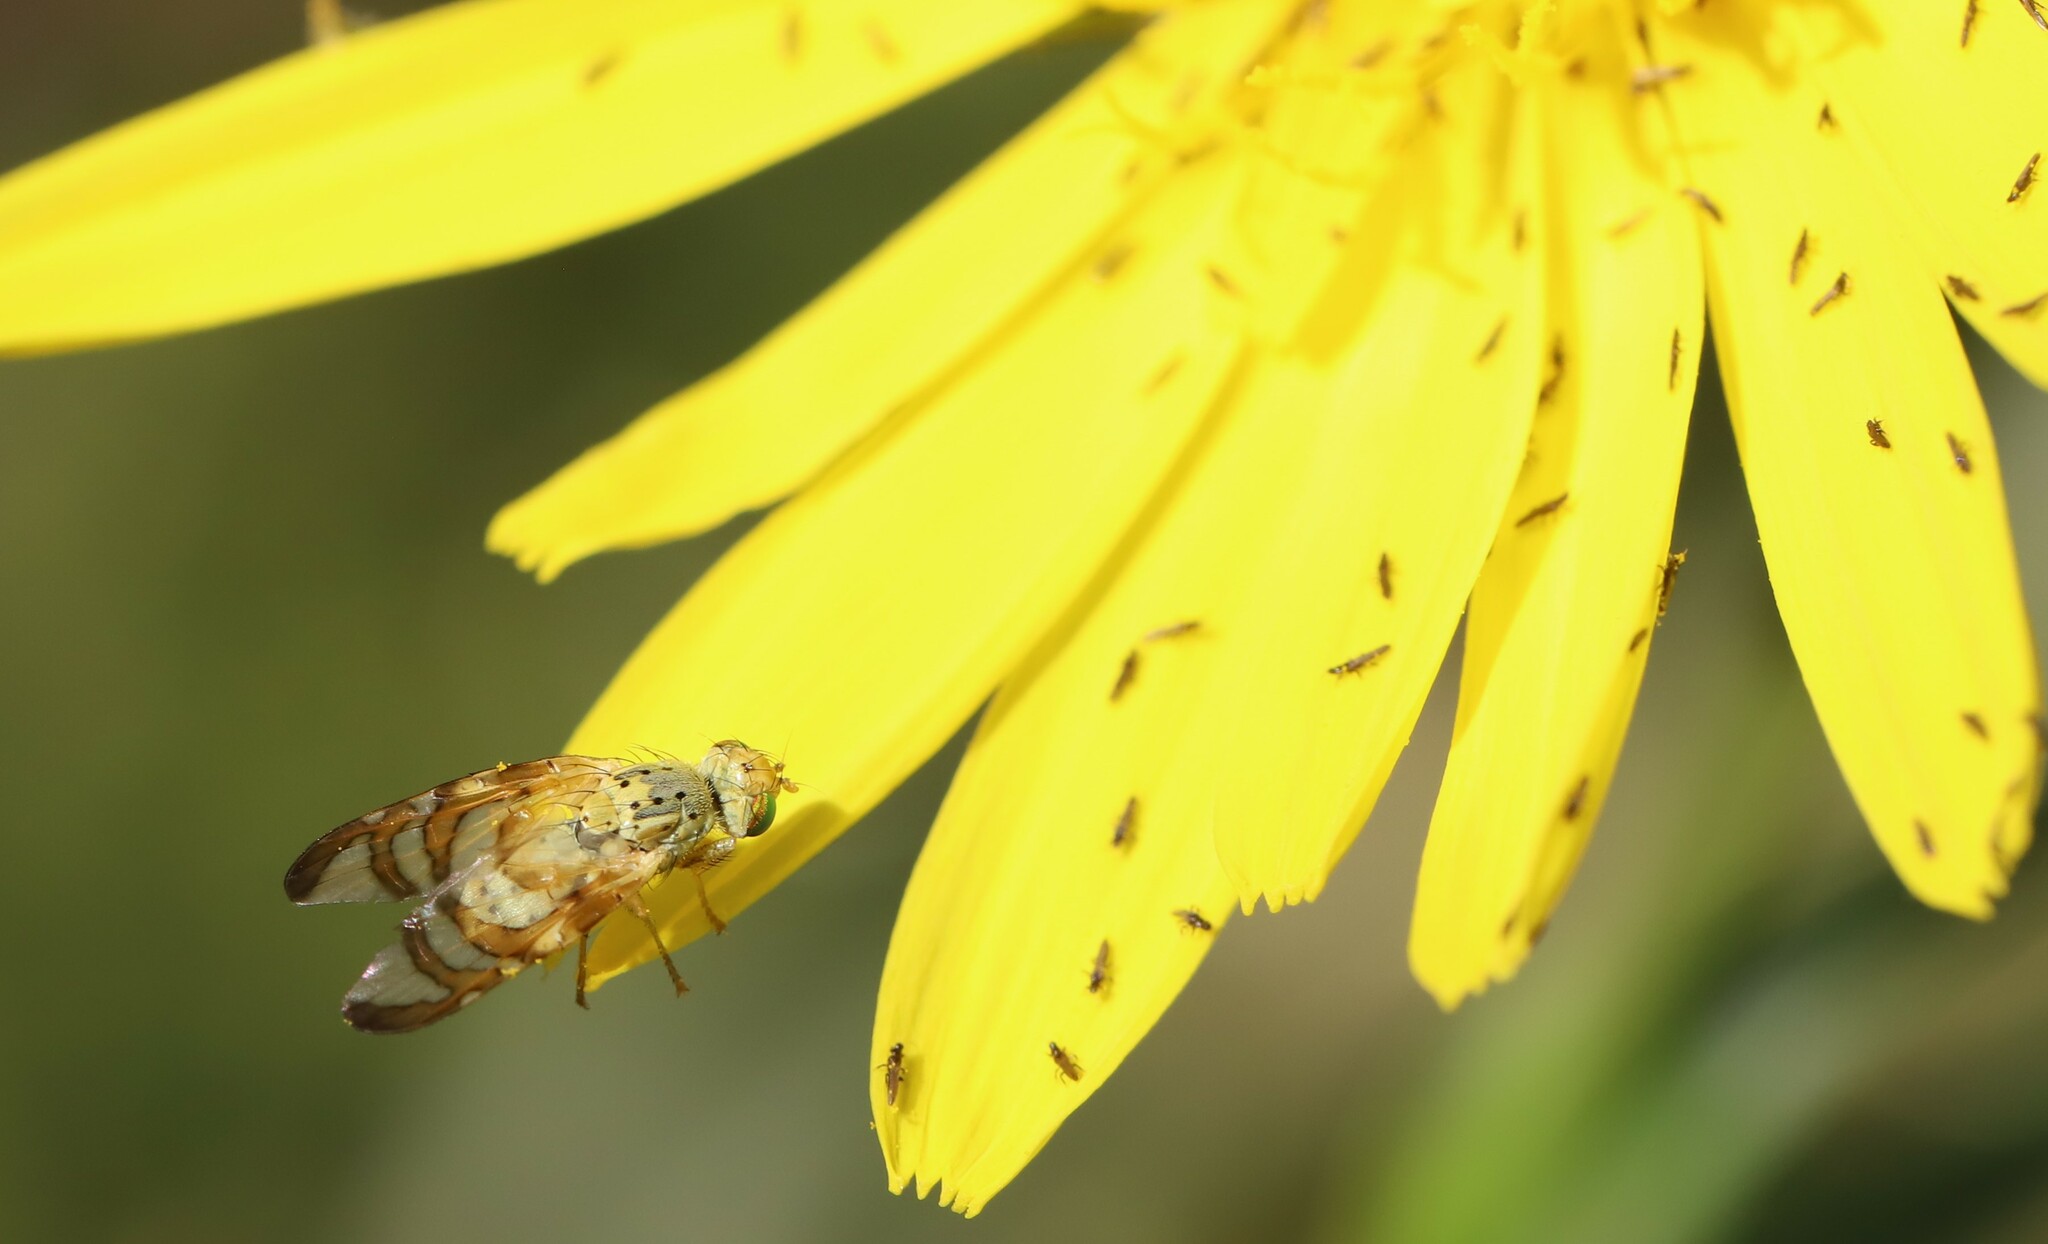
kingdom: Animalia
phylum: Arthropoda
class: Insecta
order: Diptera
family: Tephritidae
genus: Orellia
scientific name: Orellia falcata
